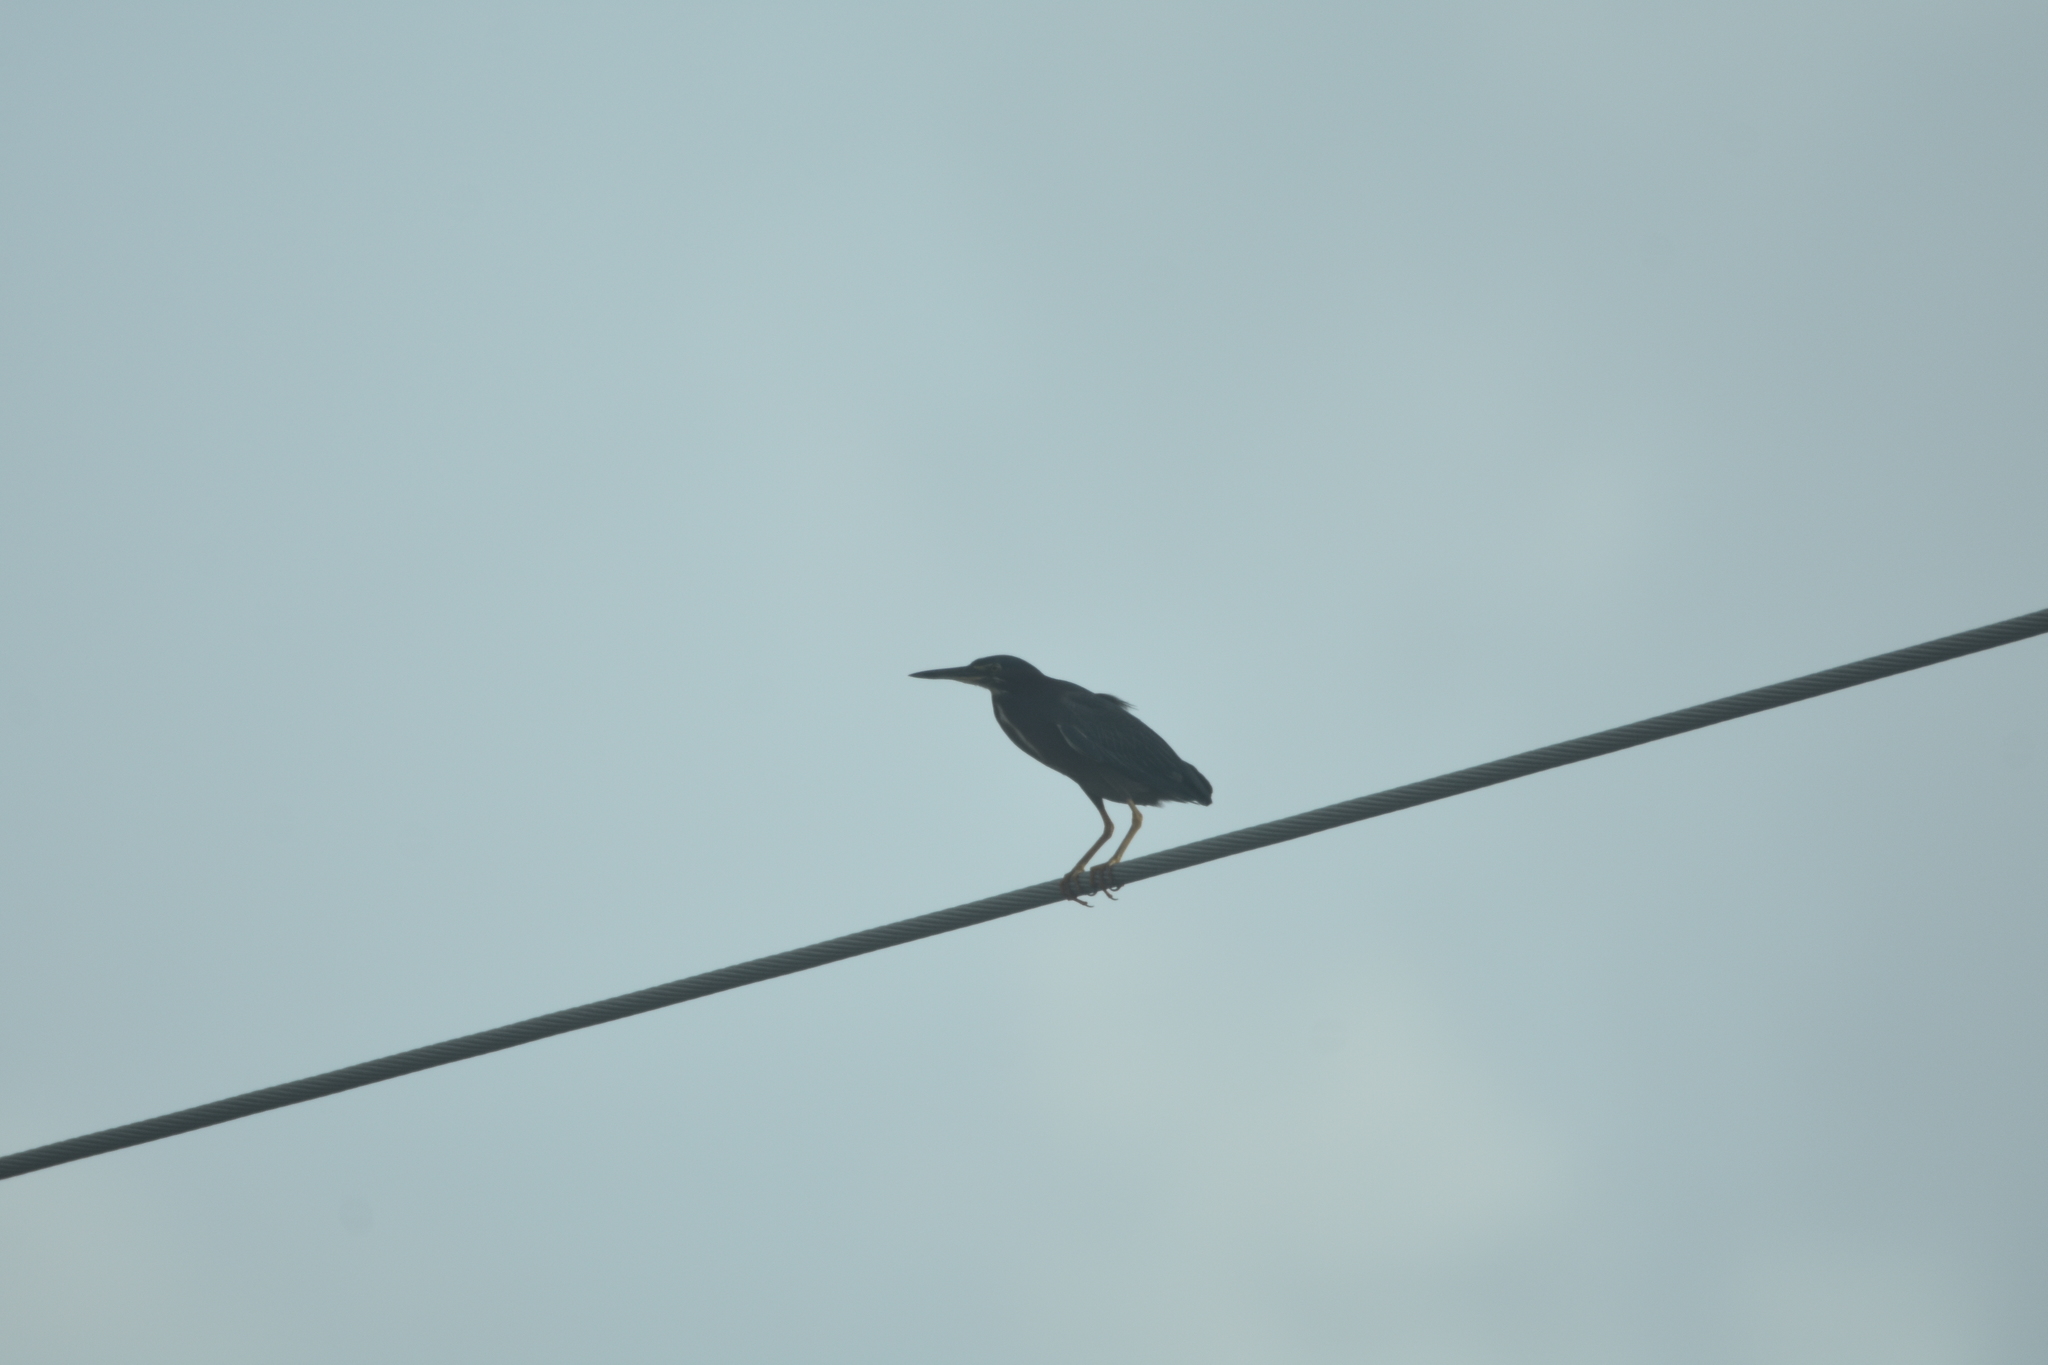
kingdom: Animalia
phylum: Chordata
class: Aves
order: Pelecaniformes
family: Ardeidae
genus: Butorides
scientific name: Butorides virescens
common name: Green heron
